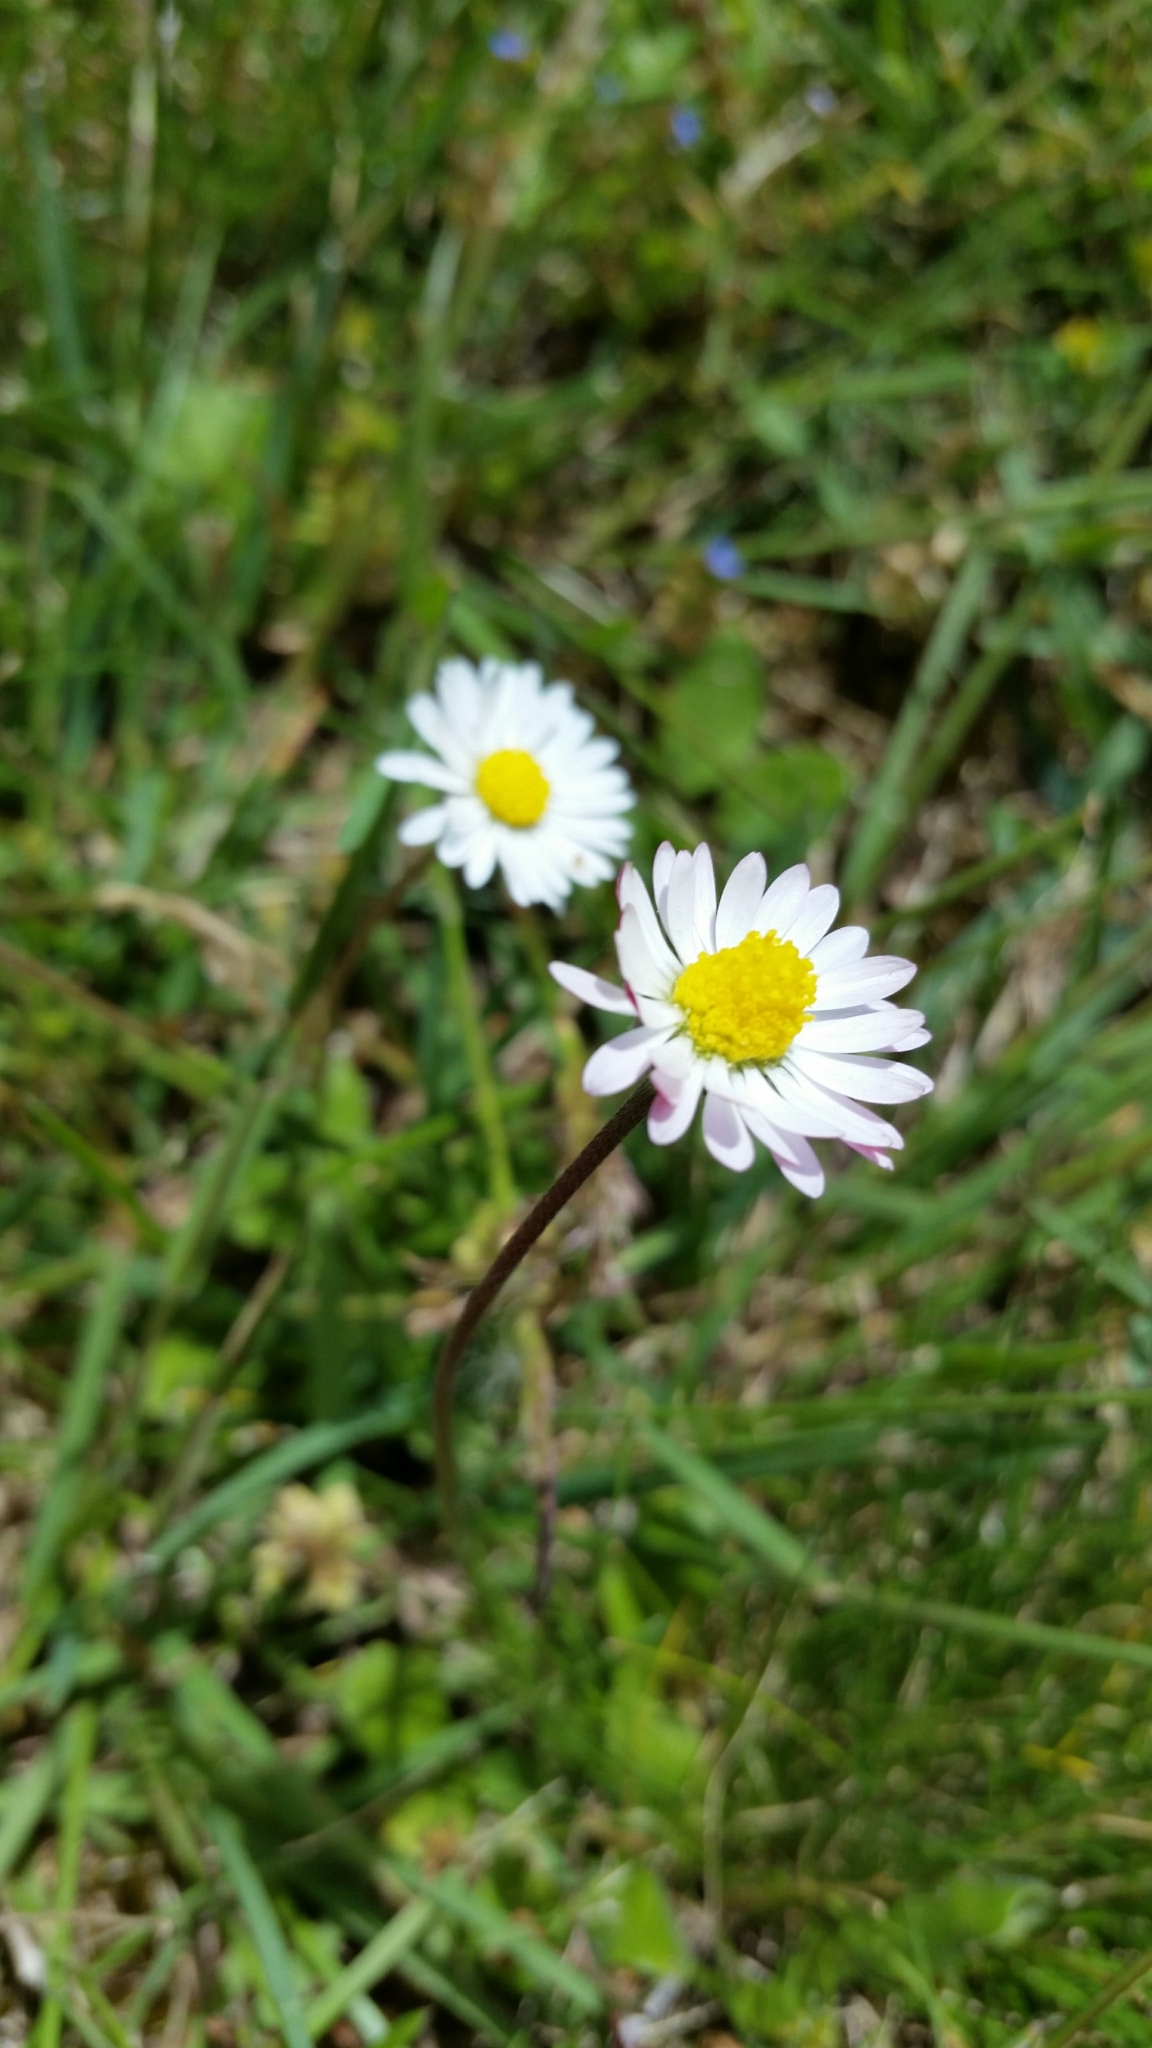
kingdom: Plantae
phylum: Tracheophyta
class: Magnoliopsida
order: Asterales
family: Asteraceae
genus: Bellis
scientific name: Bellis perennis
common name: Lawndaisy
